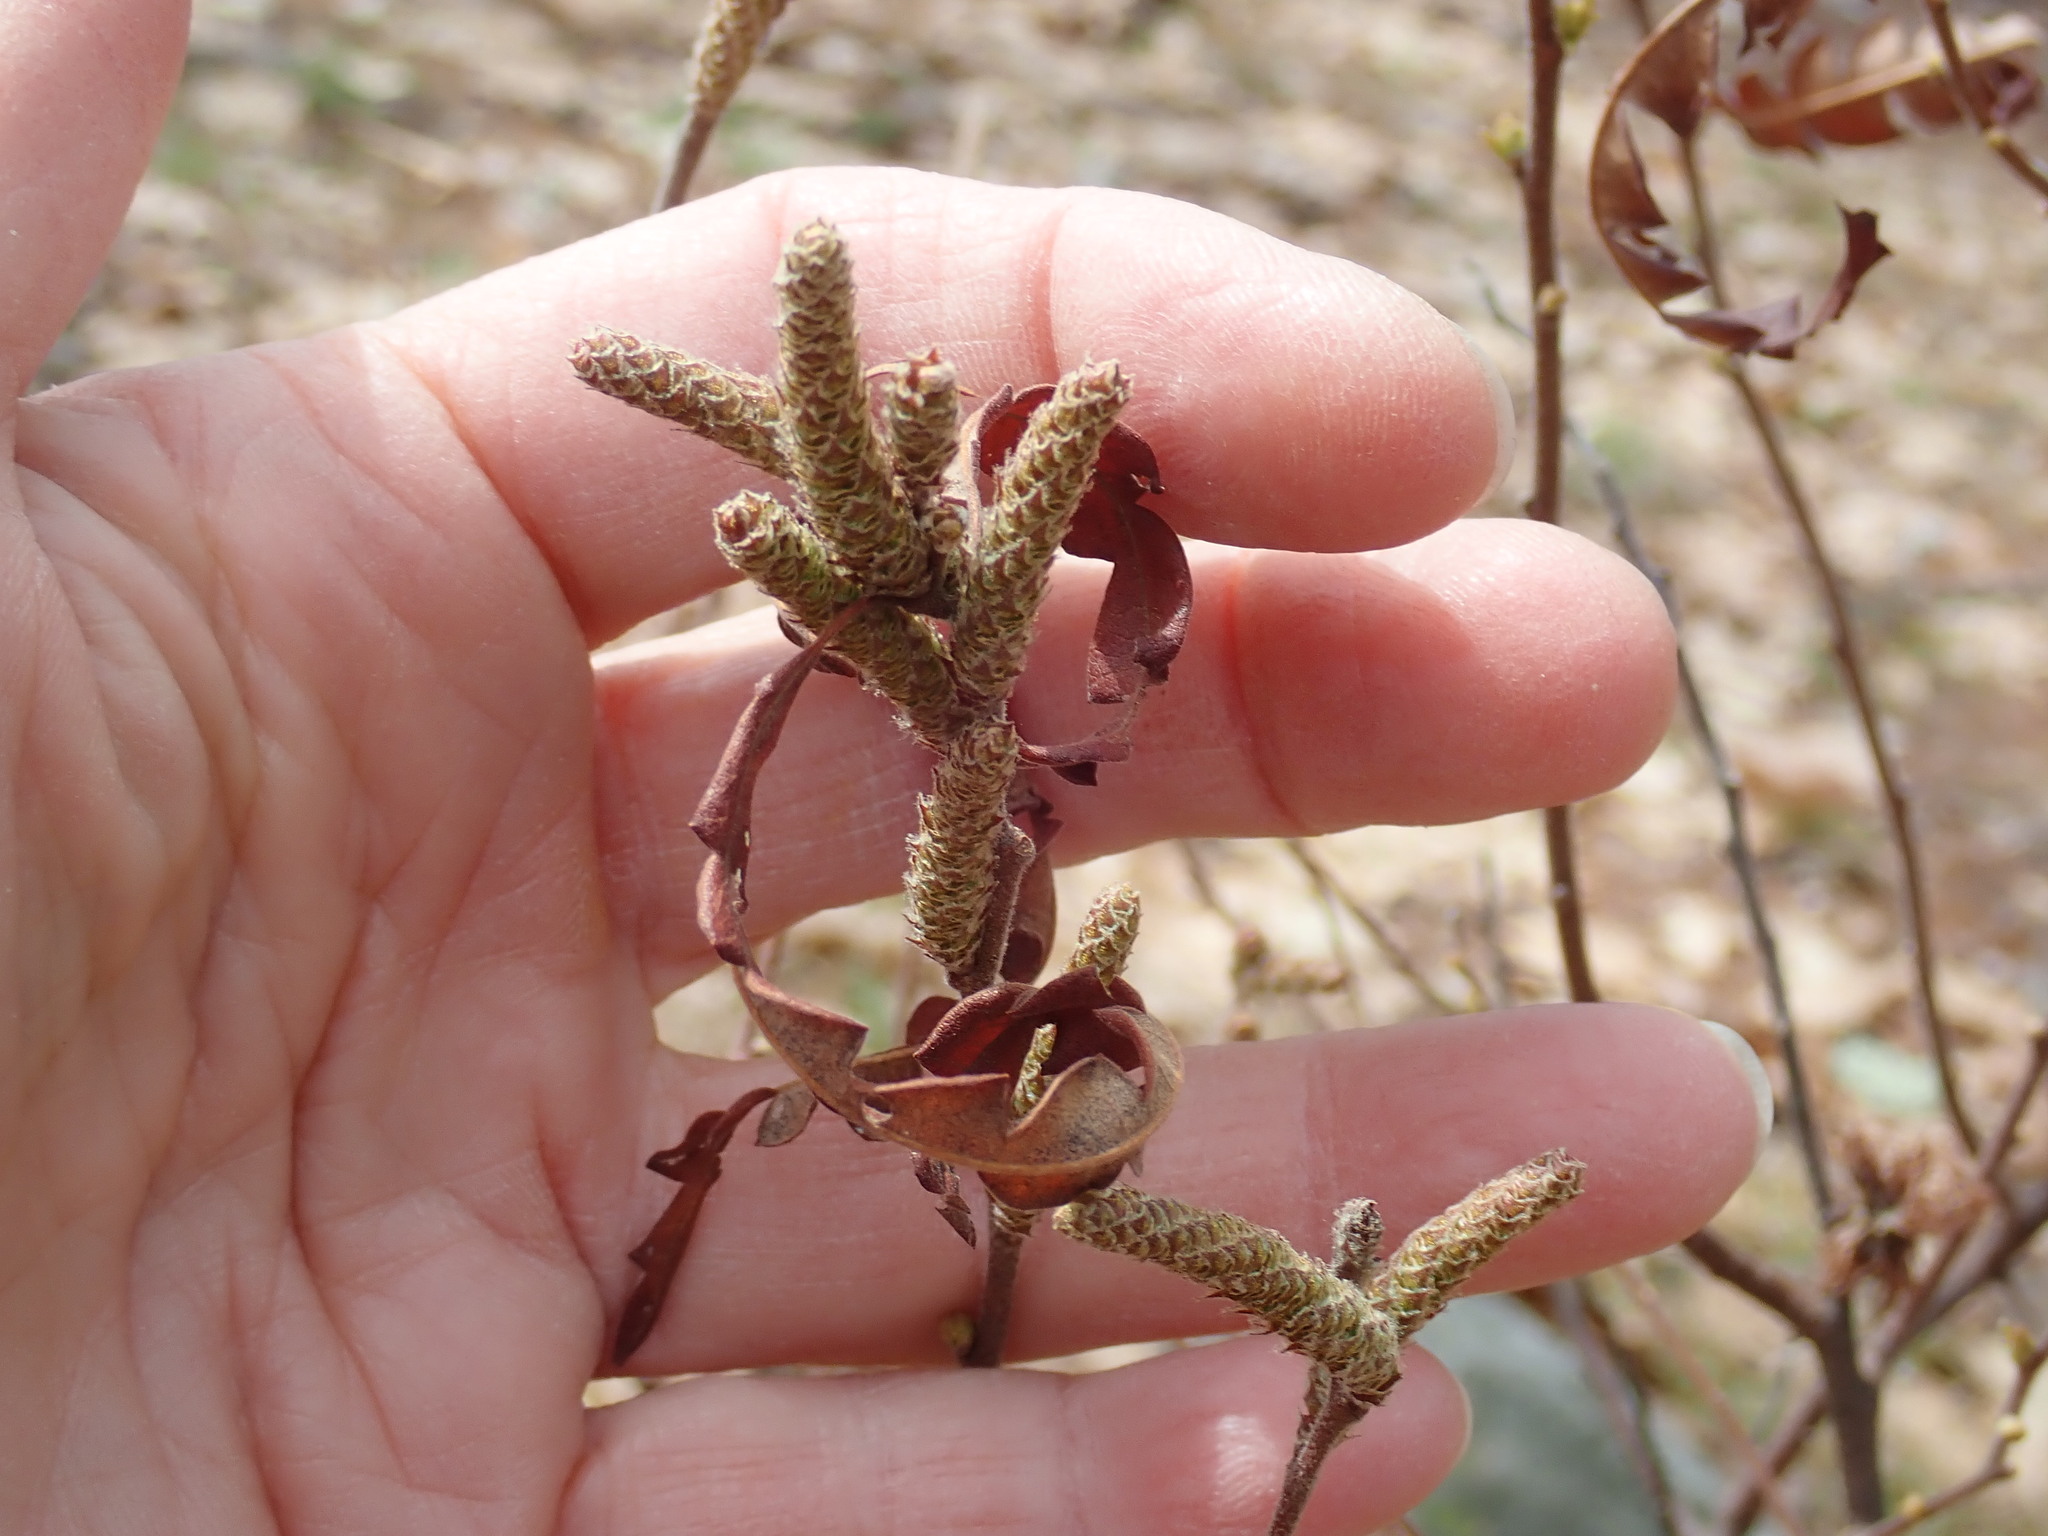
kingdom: Plantae
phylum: Tracheophyta
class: Magnoliopsida
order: Fagales
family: Myricaceae
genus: Comptonia
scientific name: Comptonia peregrina
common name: Sweet-fern
